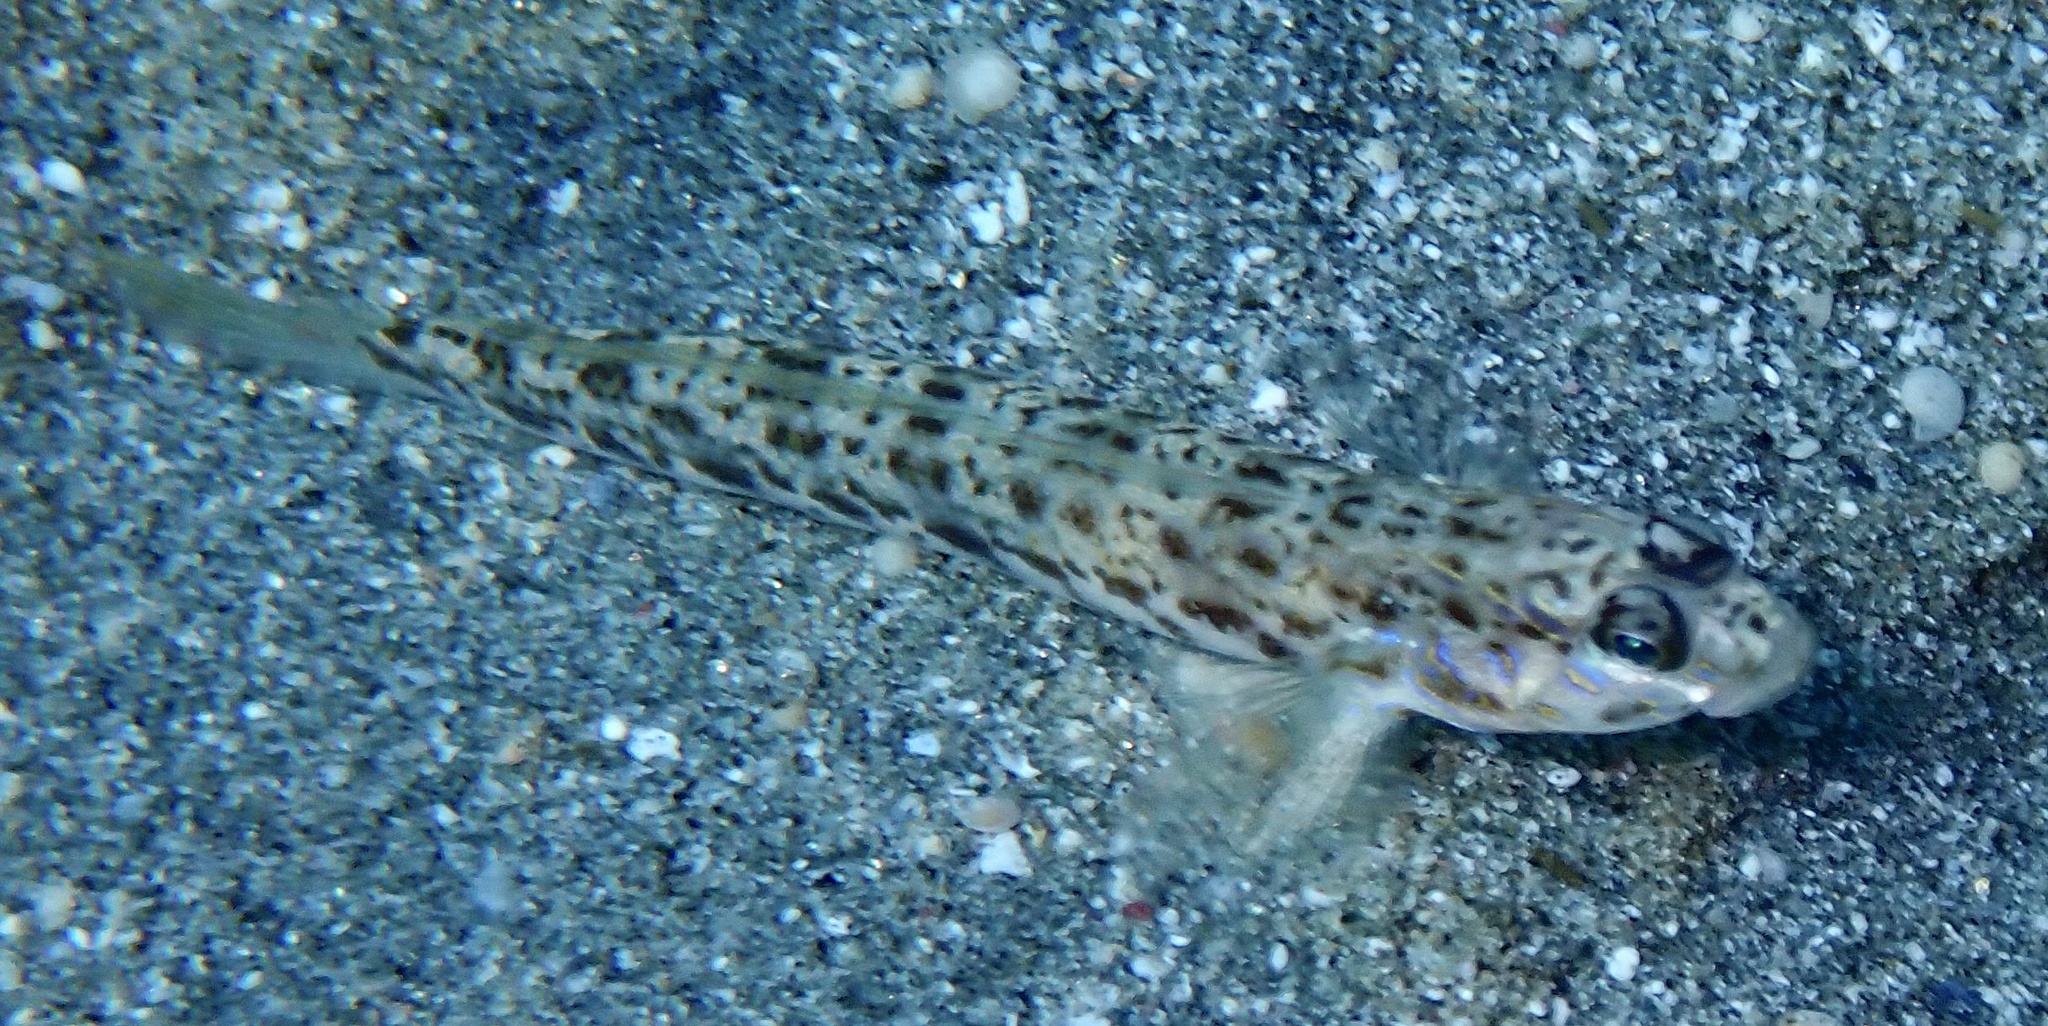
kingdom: Animalia
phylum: Chordata
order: Perciformes
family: Gobiidae
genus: Vanderhorstia
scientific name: Vanderhorstia delagoae
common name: Candystick goby
